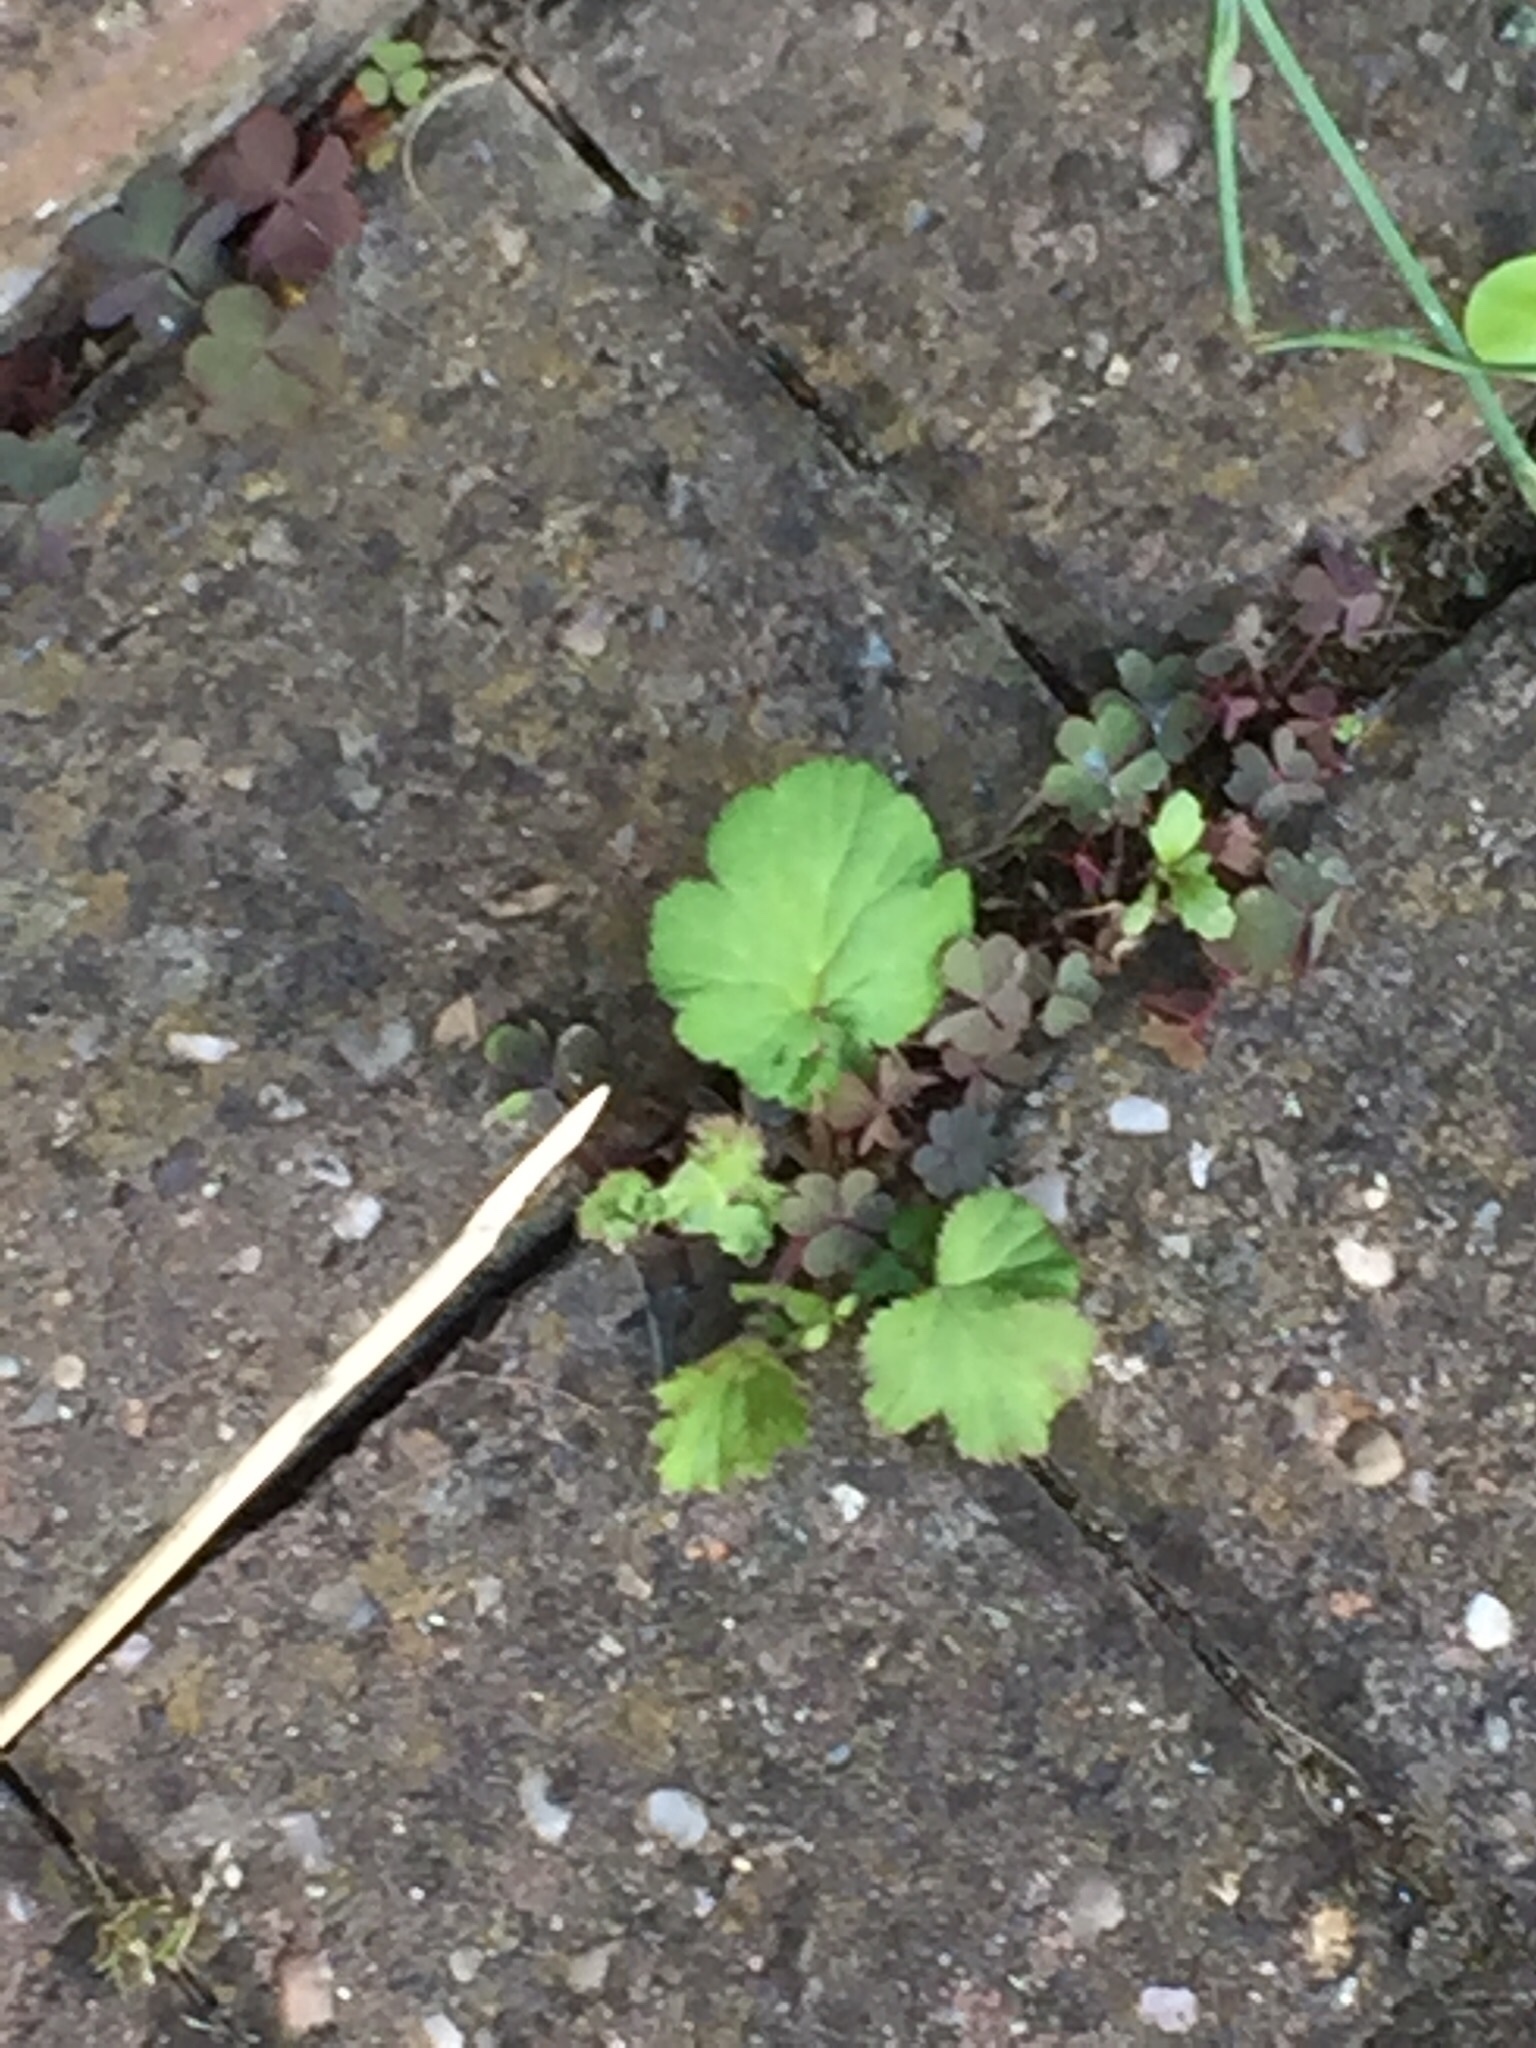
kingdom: Plantae
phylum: Tracheophyta
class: Magnoliopsida
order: Rosales
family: Rosaceae
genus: Geum
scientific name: Geum urbanum
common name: Wood avens
